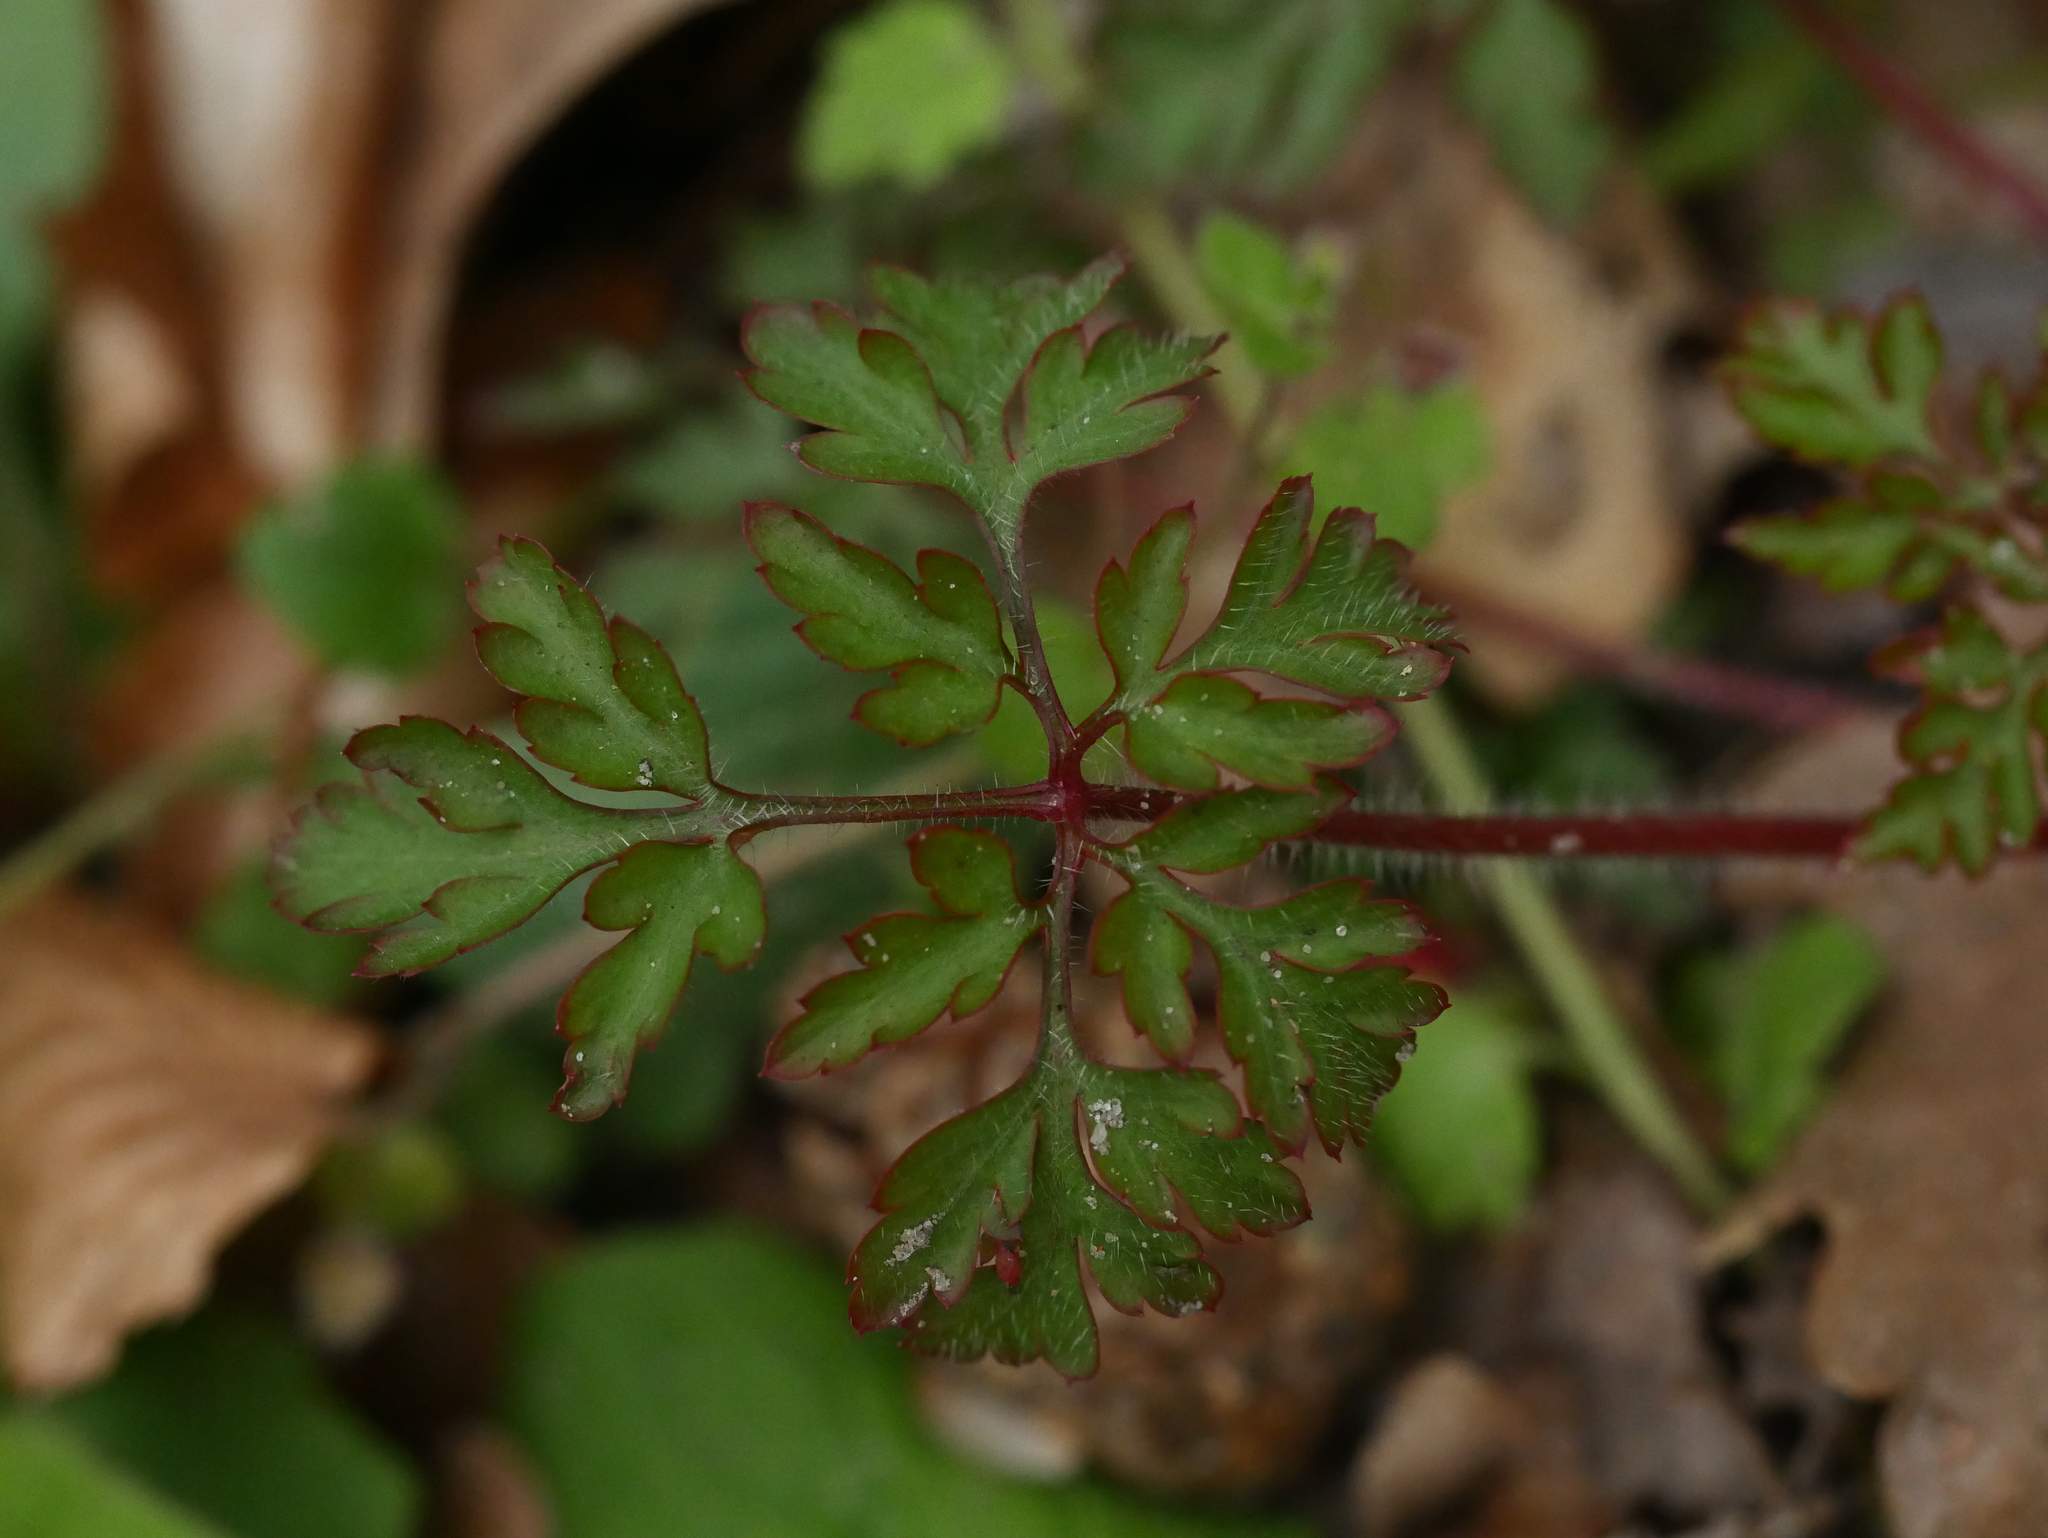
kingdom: Plantae
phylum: Tracheophyta
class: Magnoliopsida
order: Geraniales
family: Geraniaceae
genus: Geranium
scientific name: Geranium robertianum
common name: Herb-robert
